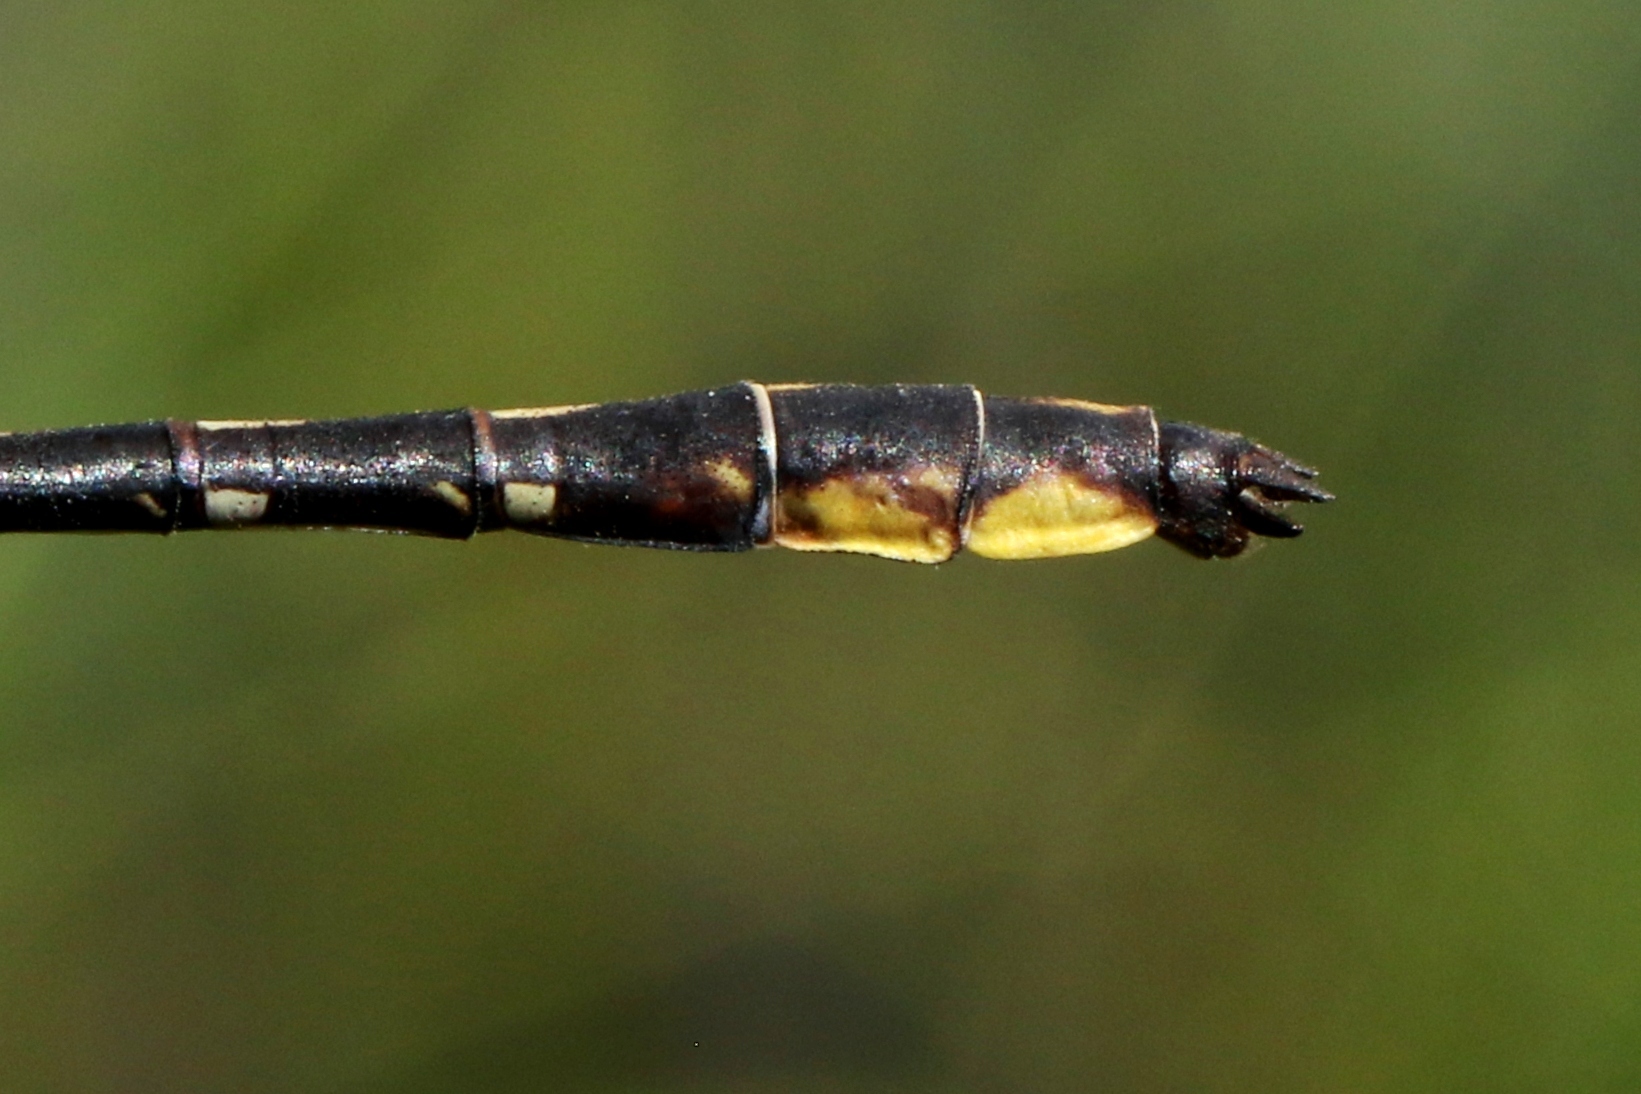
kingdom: Animalia
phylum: Arthropoda
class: Insecta
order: Odonata
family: Gomphidae
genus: Phanogomphus
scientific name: Phanogomphus exilis
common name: Lancet clubtail
